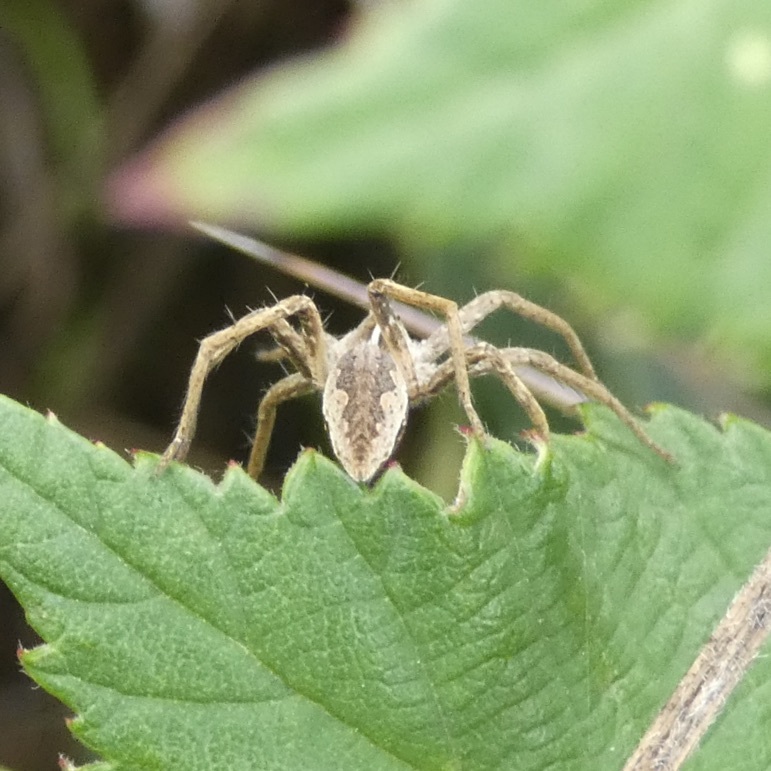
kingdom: Animalia
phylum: Arthropoda
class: Arachnida
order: Araneae
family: Pisauridae
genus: Pisaura
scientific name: Pisaura mirabilis
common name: Tent spider
